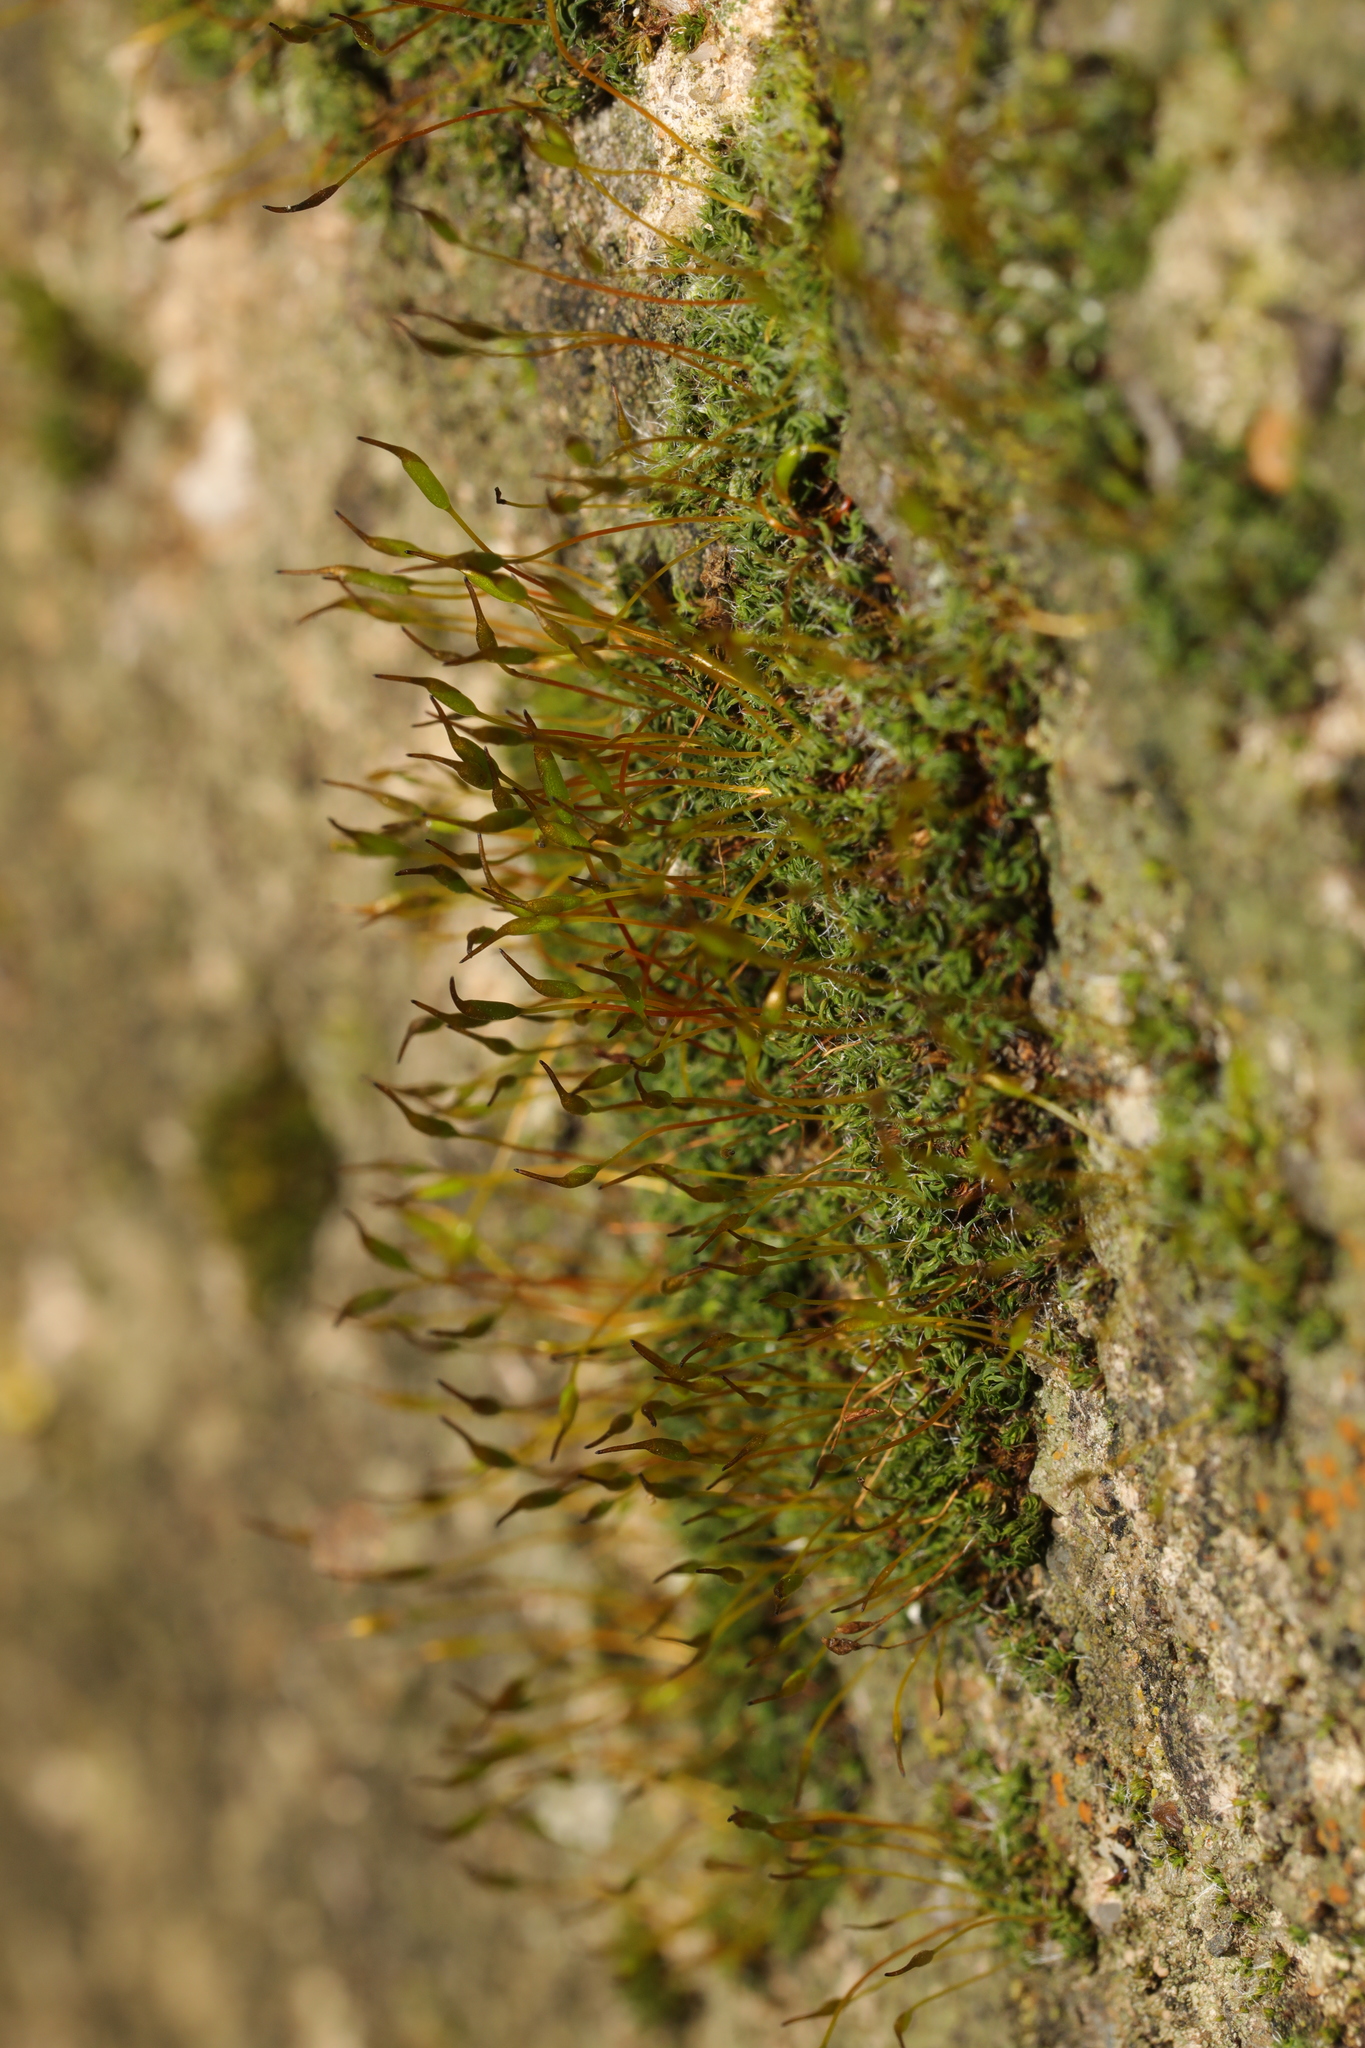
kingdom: Plantae
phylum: Bryophyta
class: Bryopsida
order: Pottiales
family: Pottiaceae
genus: Tortula
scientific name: Tortula muralis
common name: Wall screw-moss
